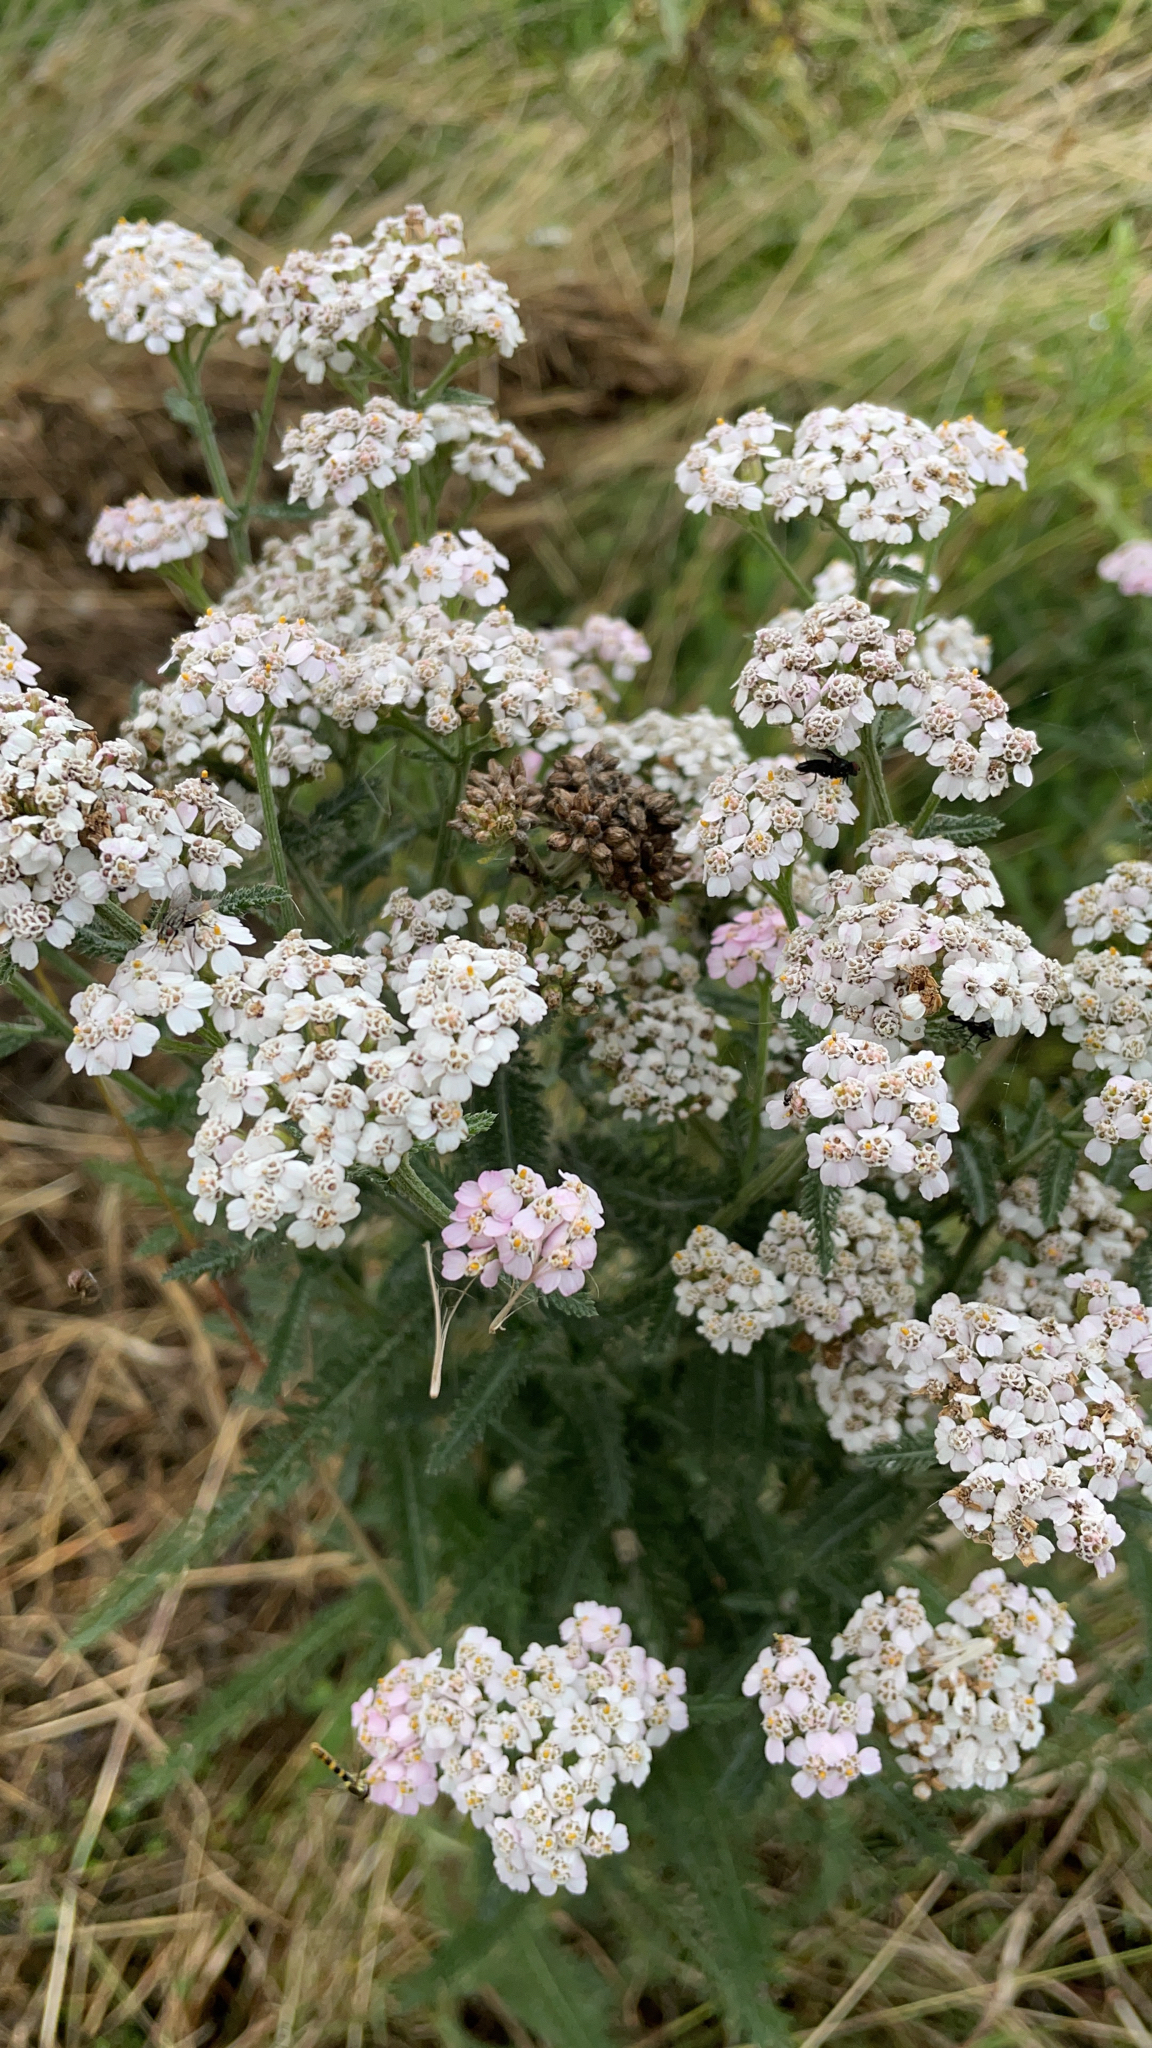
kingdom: Plantae
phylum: Tracheophyta
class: Magnoliopsida
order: Asterales
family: Asteraceae
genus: Achillea
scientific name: Achillea millefolium
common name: Yarrow
